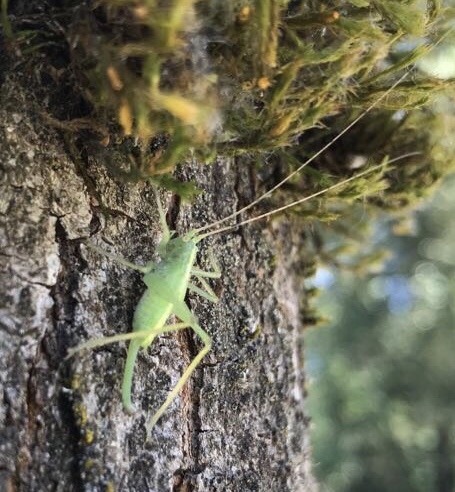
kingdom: Animalia
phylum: Arthropoda
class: Insecta
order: Orthoptera
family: Tettigoniidae
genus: Meconema
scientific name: Meconema thalassinum
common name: Oak bush-cricket
